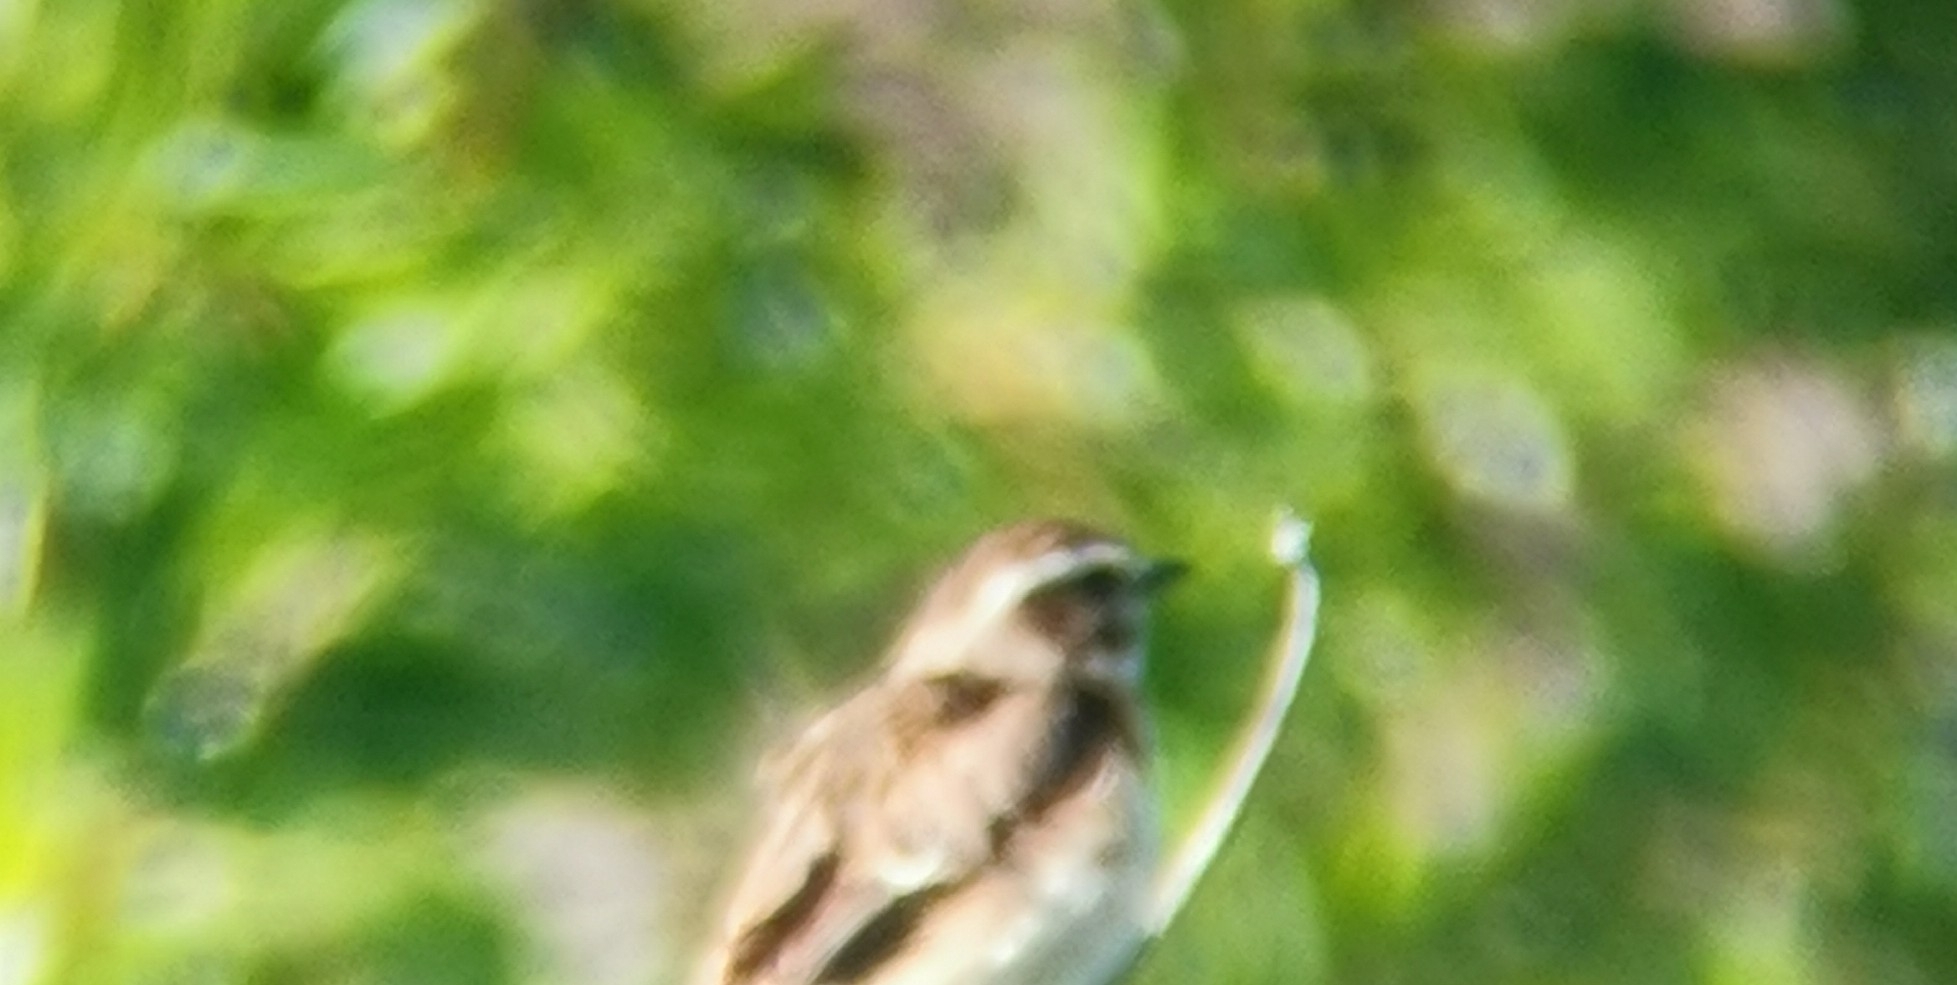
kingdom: Animalia
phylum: Chordata
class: Aves
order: Passeriformes
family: Muscicapidae
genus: Saxicola
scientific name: Saxicola rubetra
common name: Whinchat
